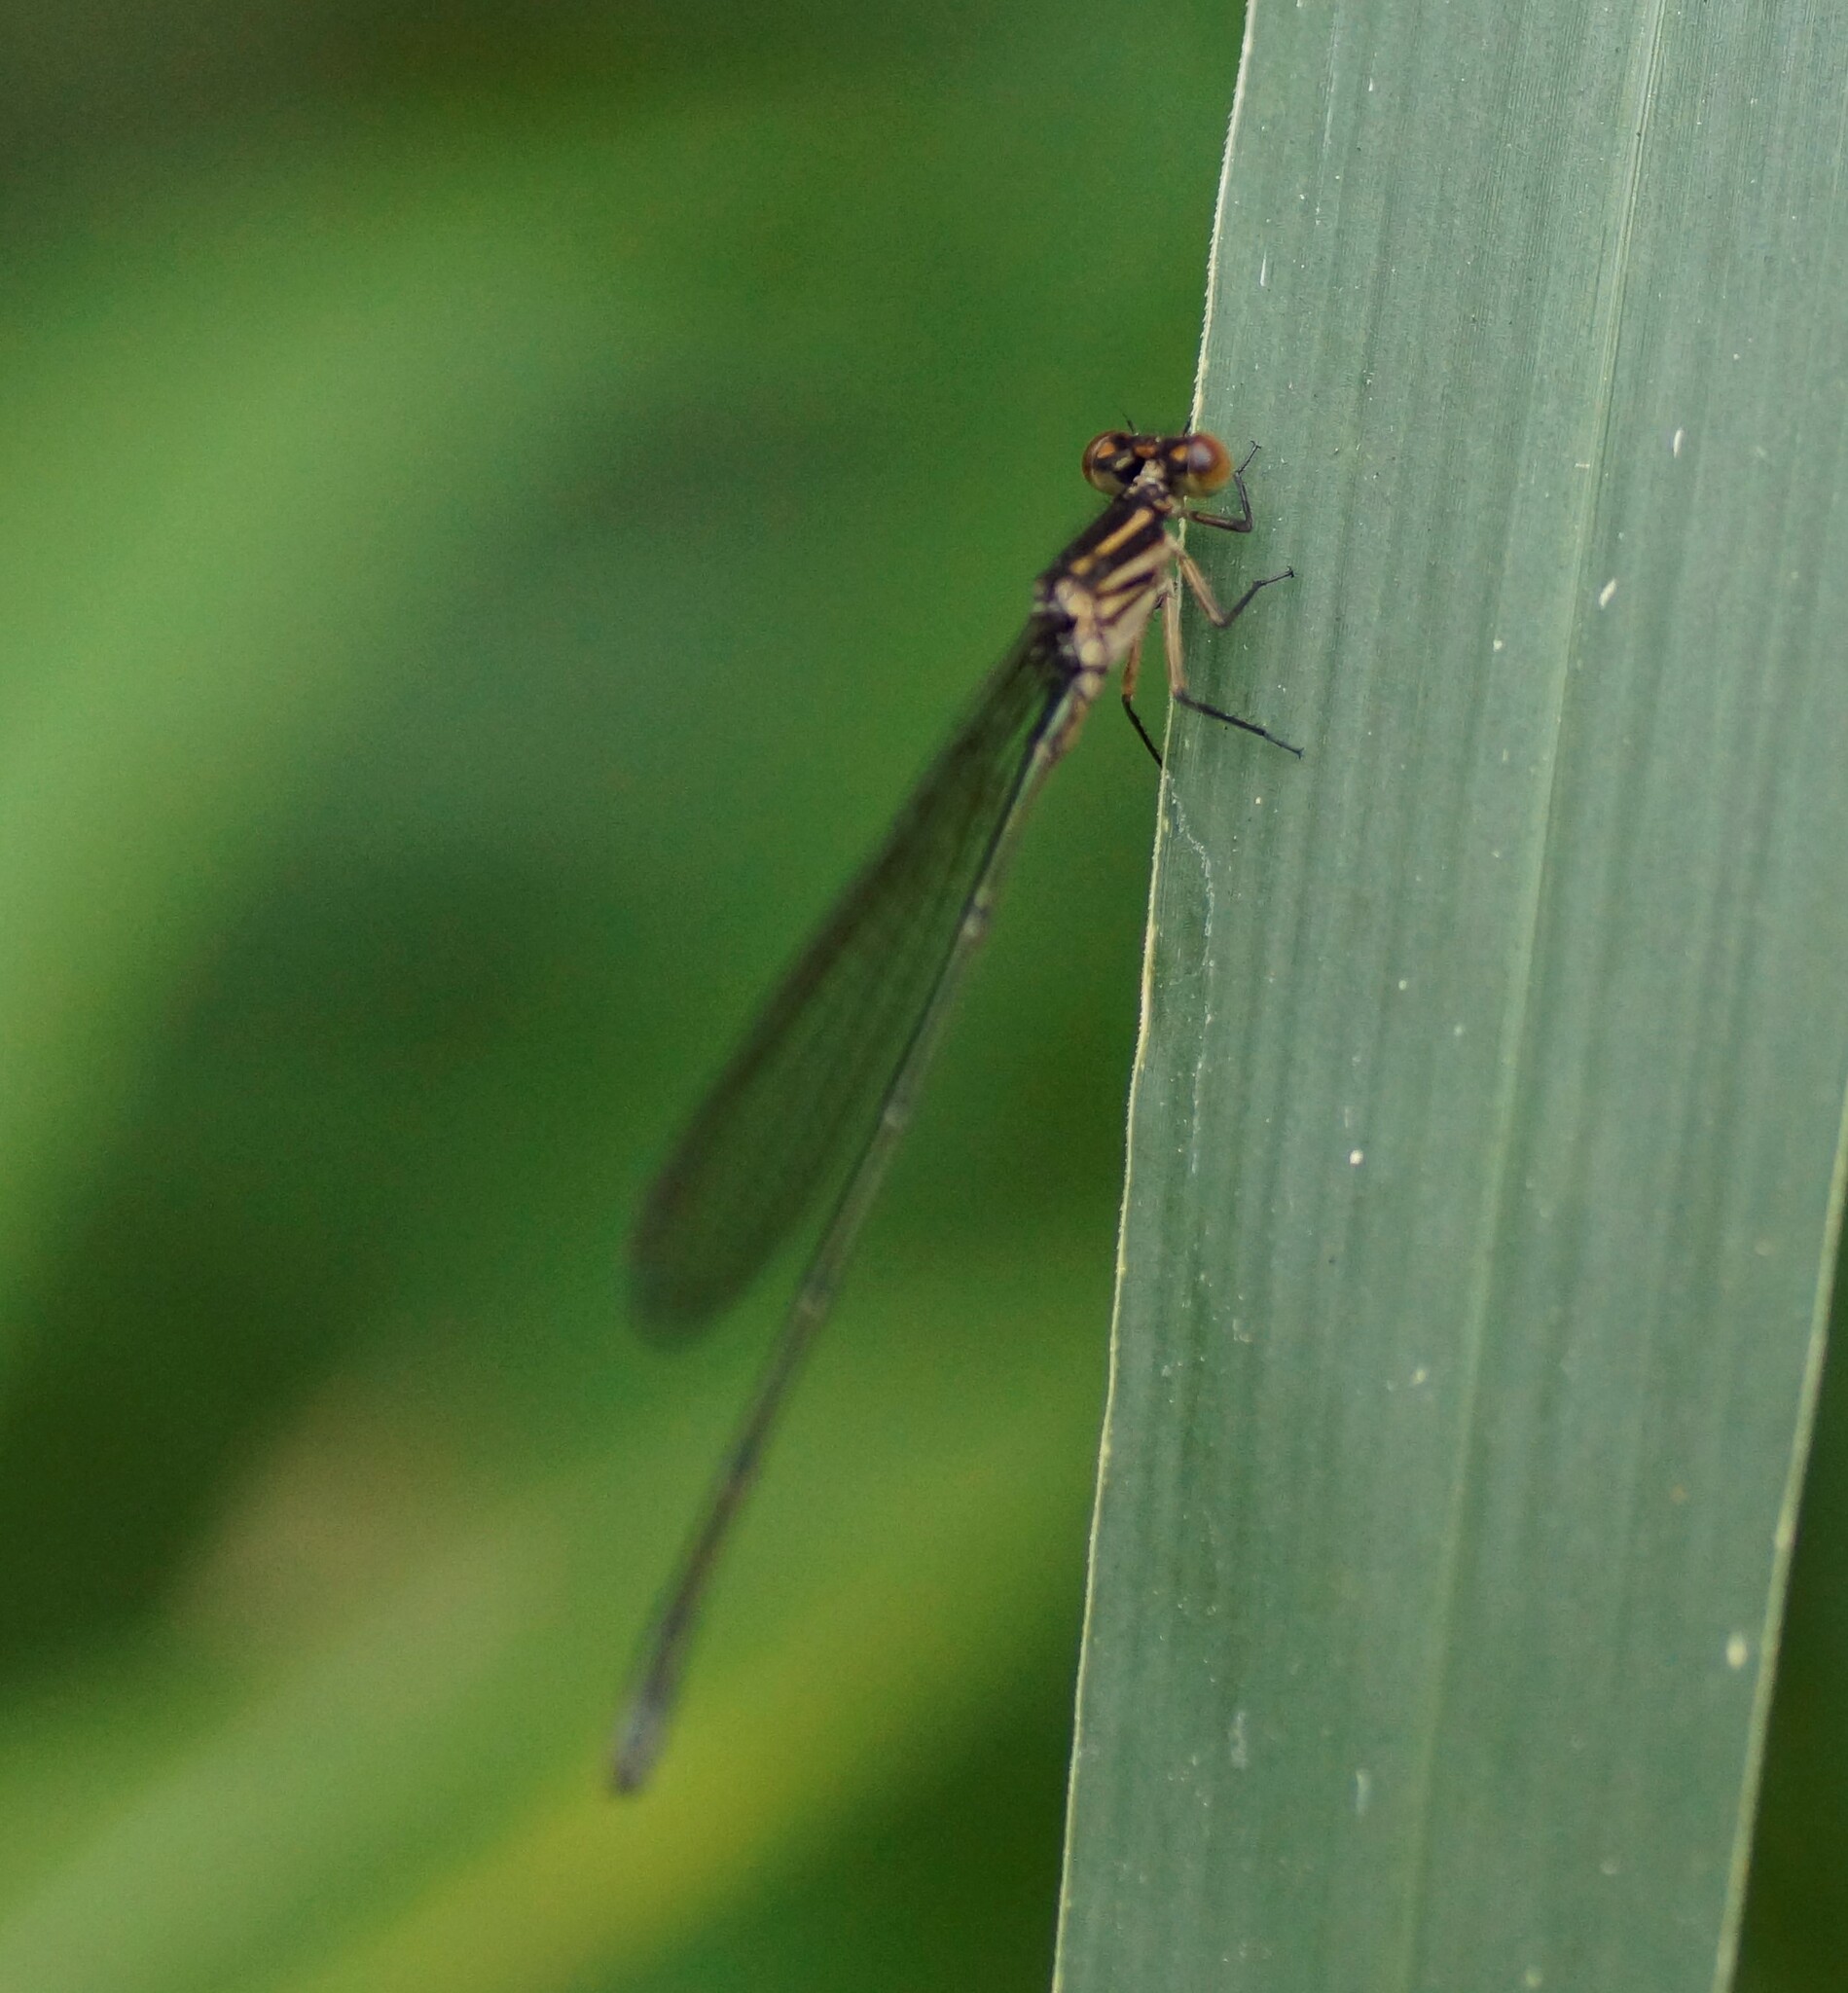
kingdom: Animalia
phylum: Arthropoda
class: Insecta
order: Odonata
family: Coenagrionidae
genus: Pseudagrion
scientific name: Pseudagrion ignifer
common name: Flame-headed riverdamsel
